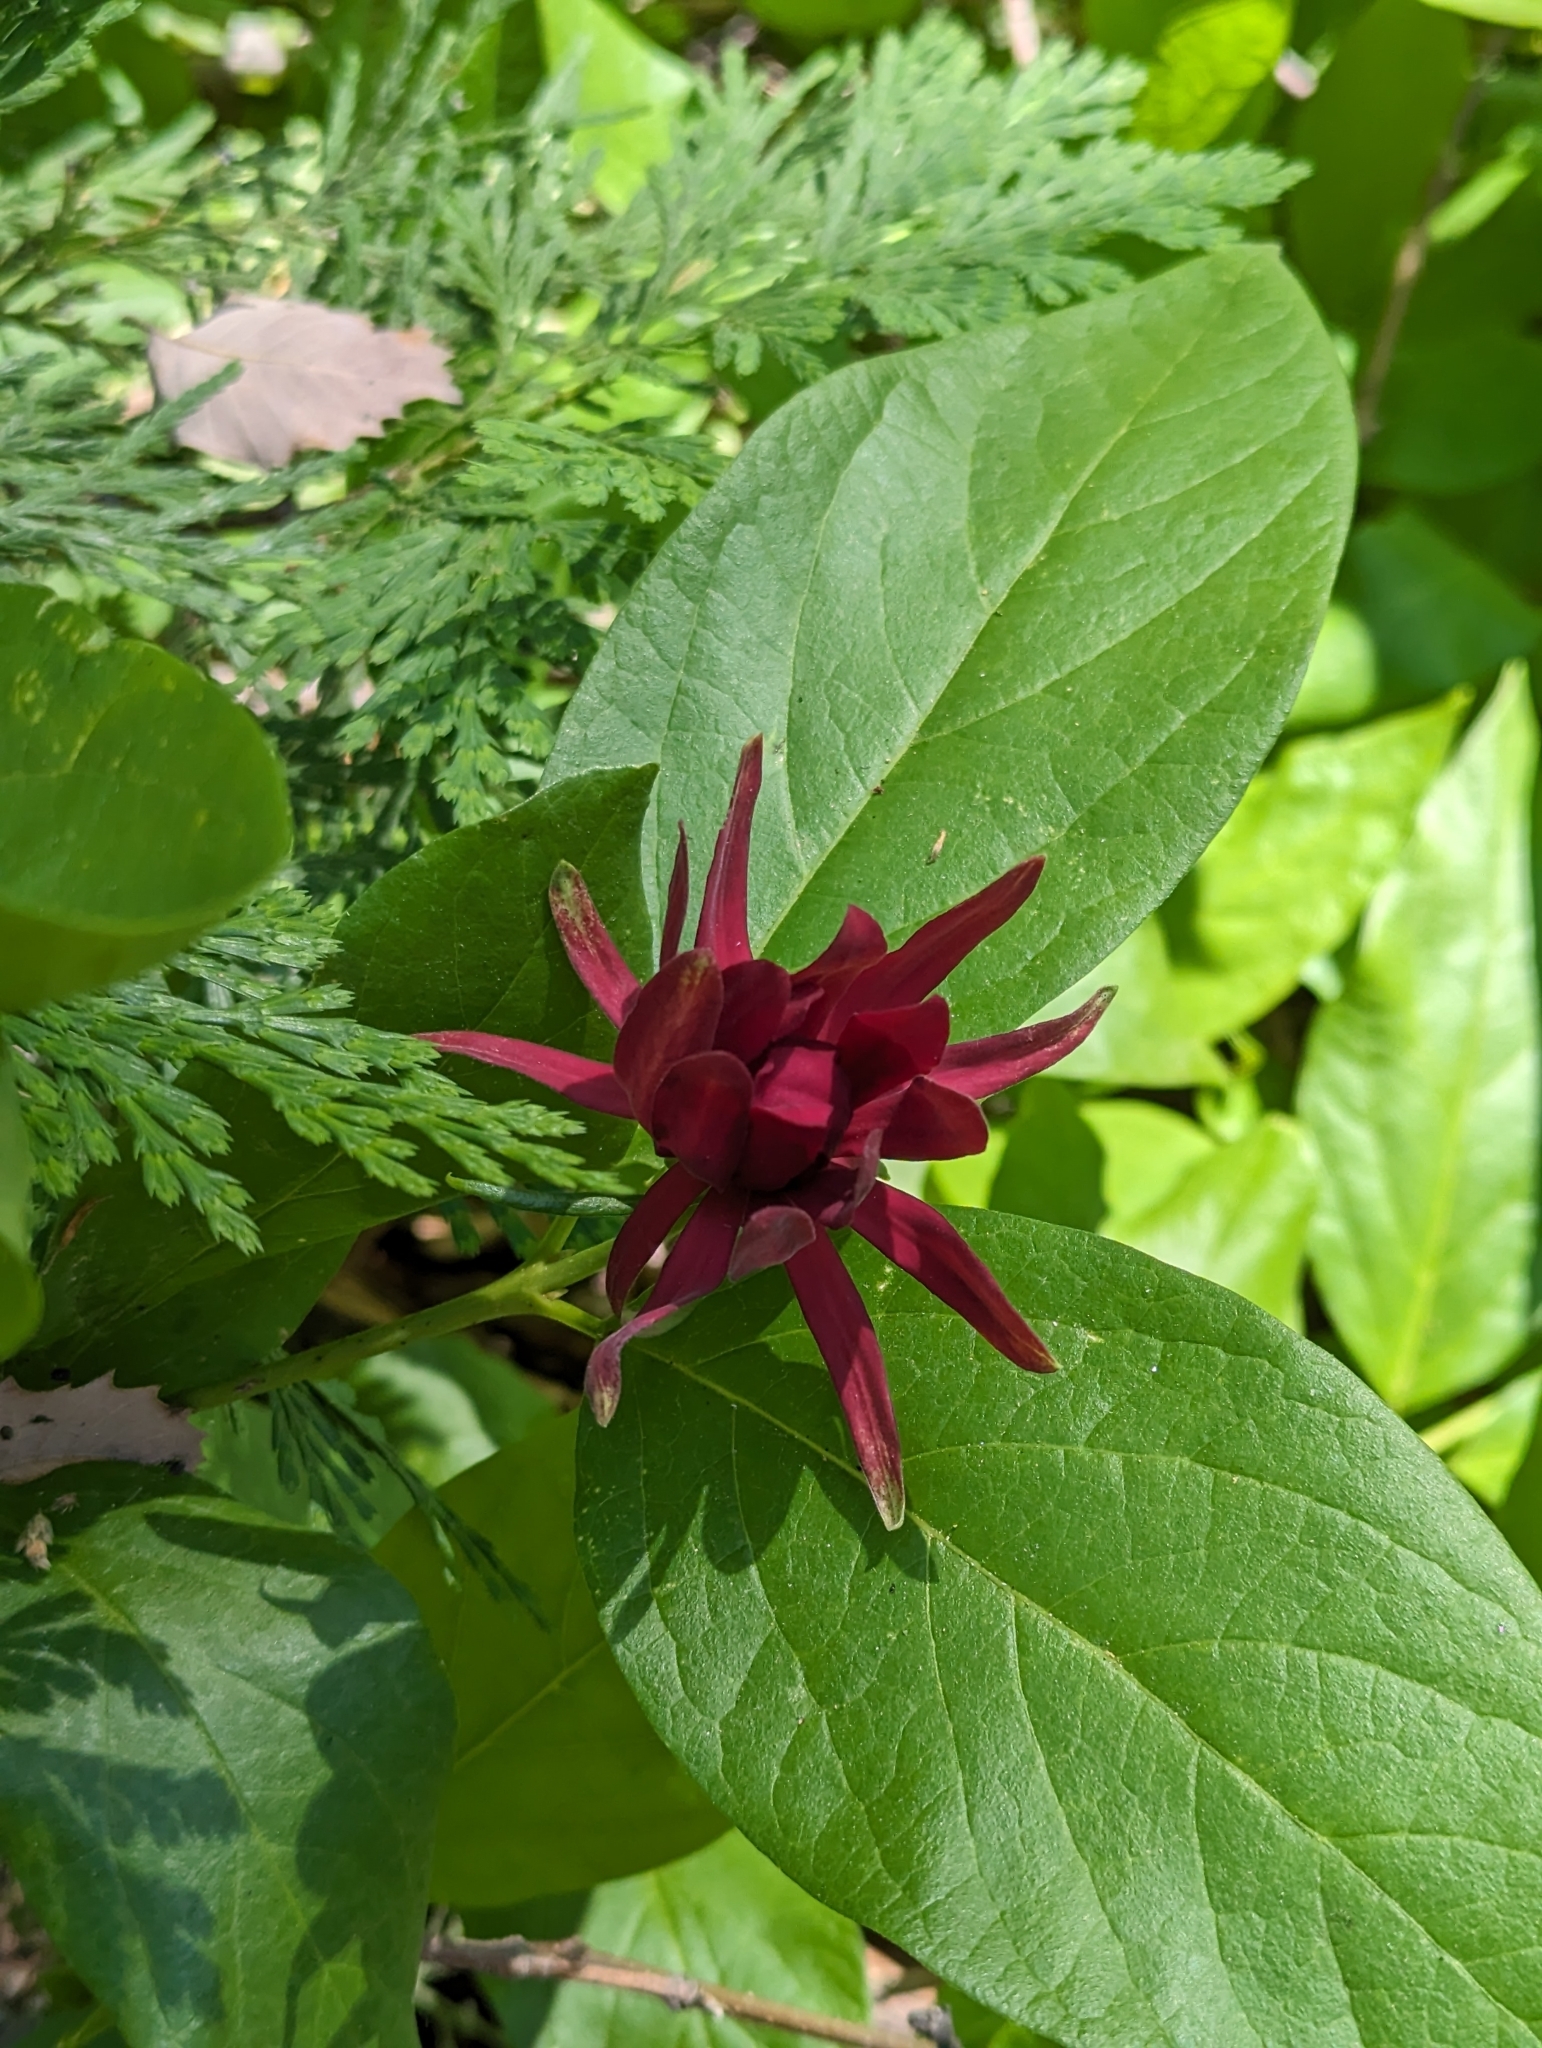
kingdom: Plantae
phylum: Tracheophyta
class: Magnoliopsida
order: Laurales
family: Calycanthaceae
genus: Calycanthus
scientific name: Calycanthus occidentalis
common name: California spicebush
